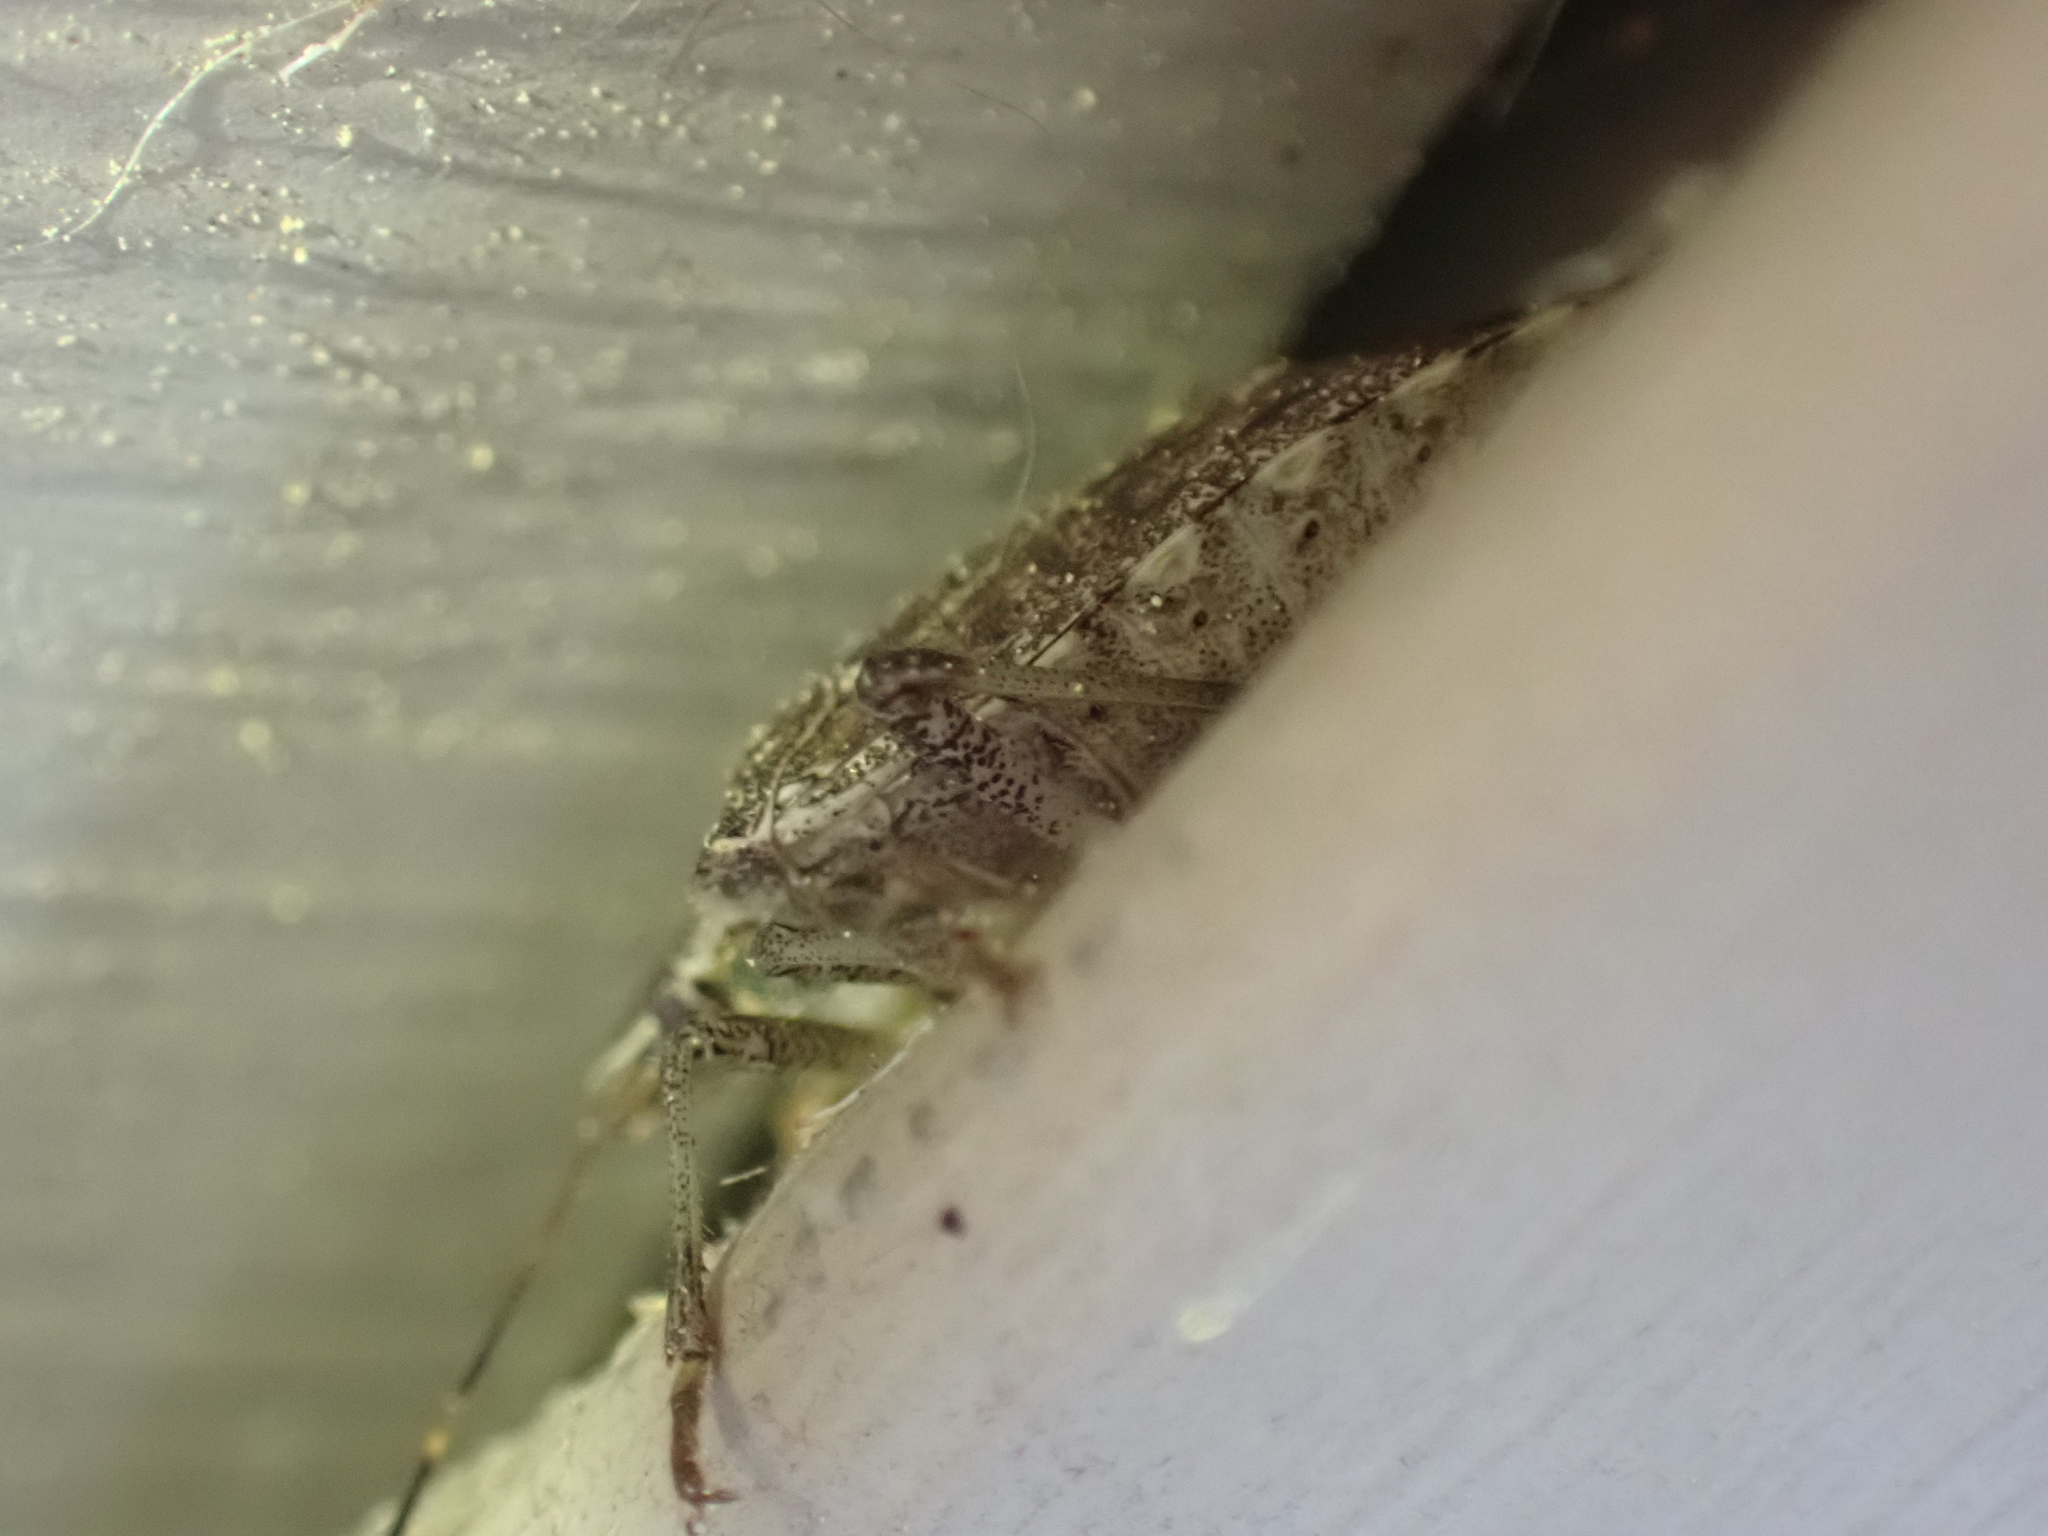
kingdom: Animalia
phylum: Arthropoda
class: Insecta
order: Hemiptera
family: Pentatomidae
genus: Halyomorpha
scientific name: Halyomorpha halys
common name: Brown marmorated stink bug
